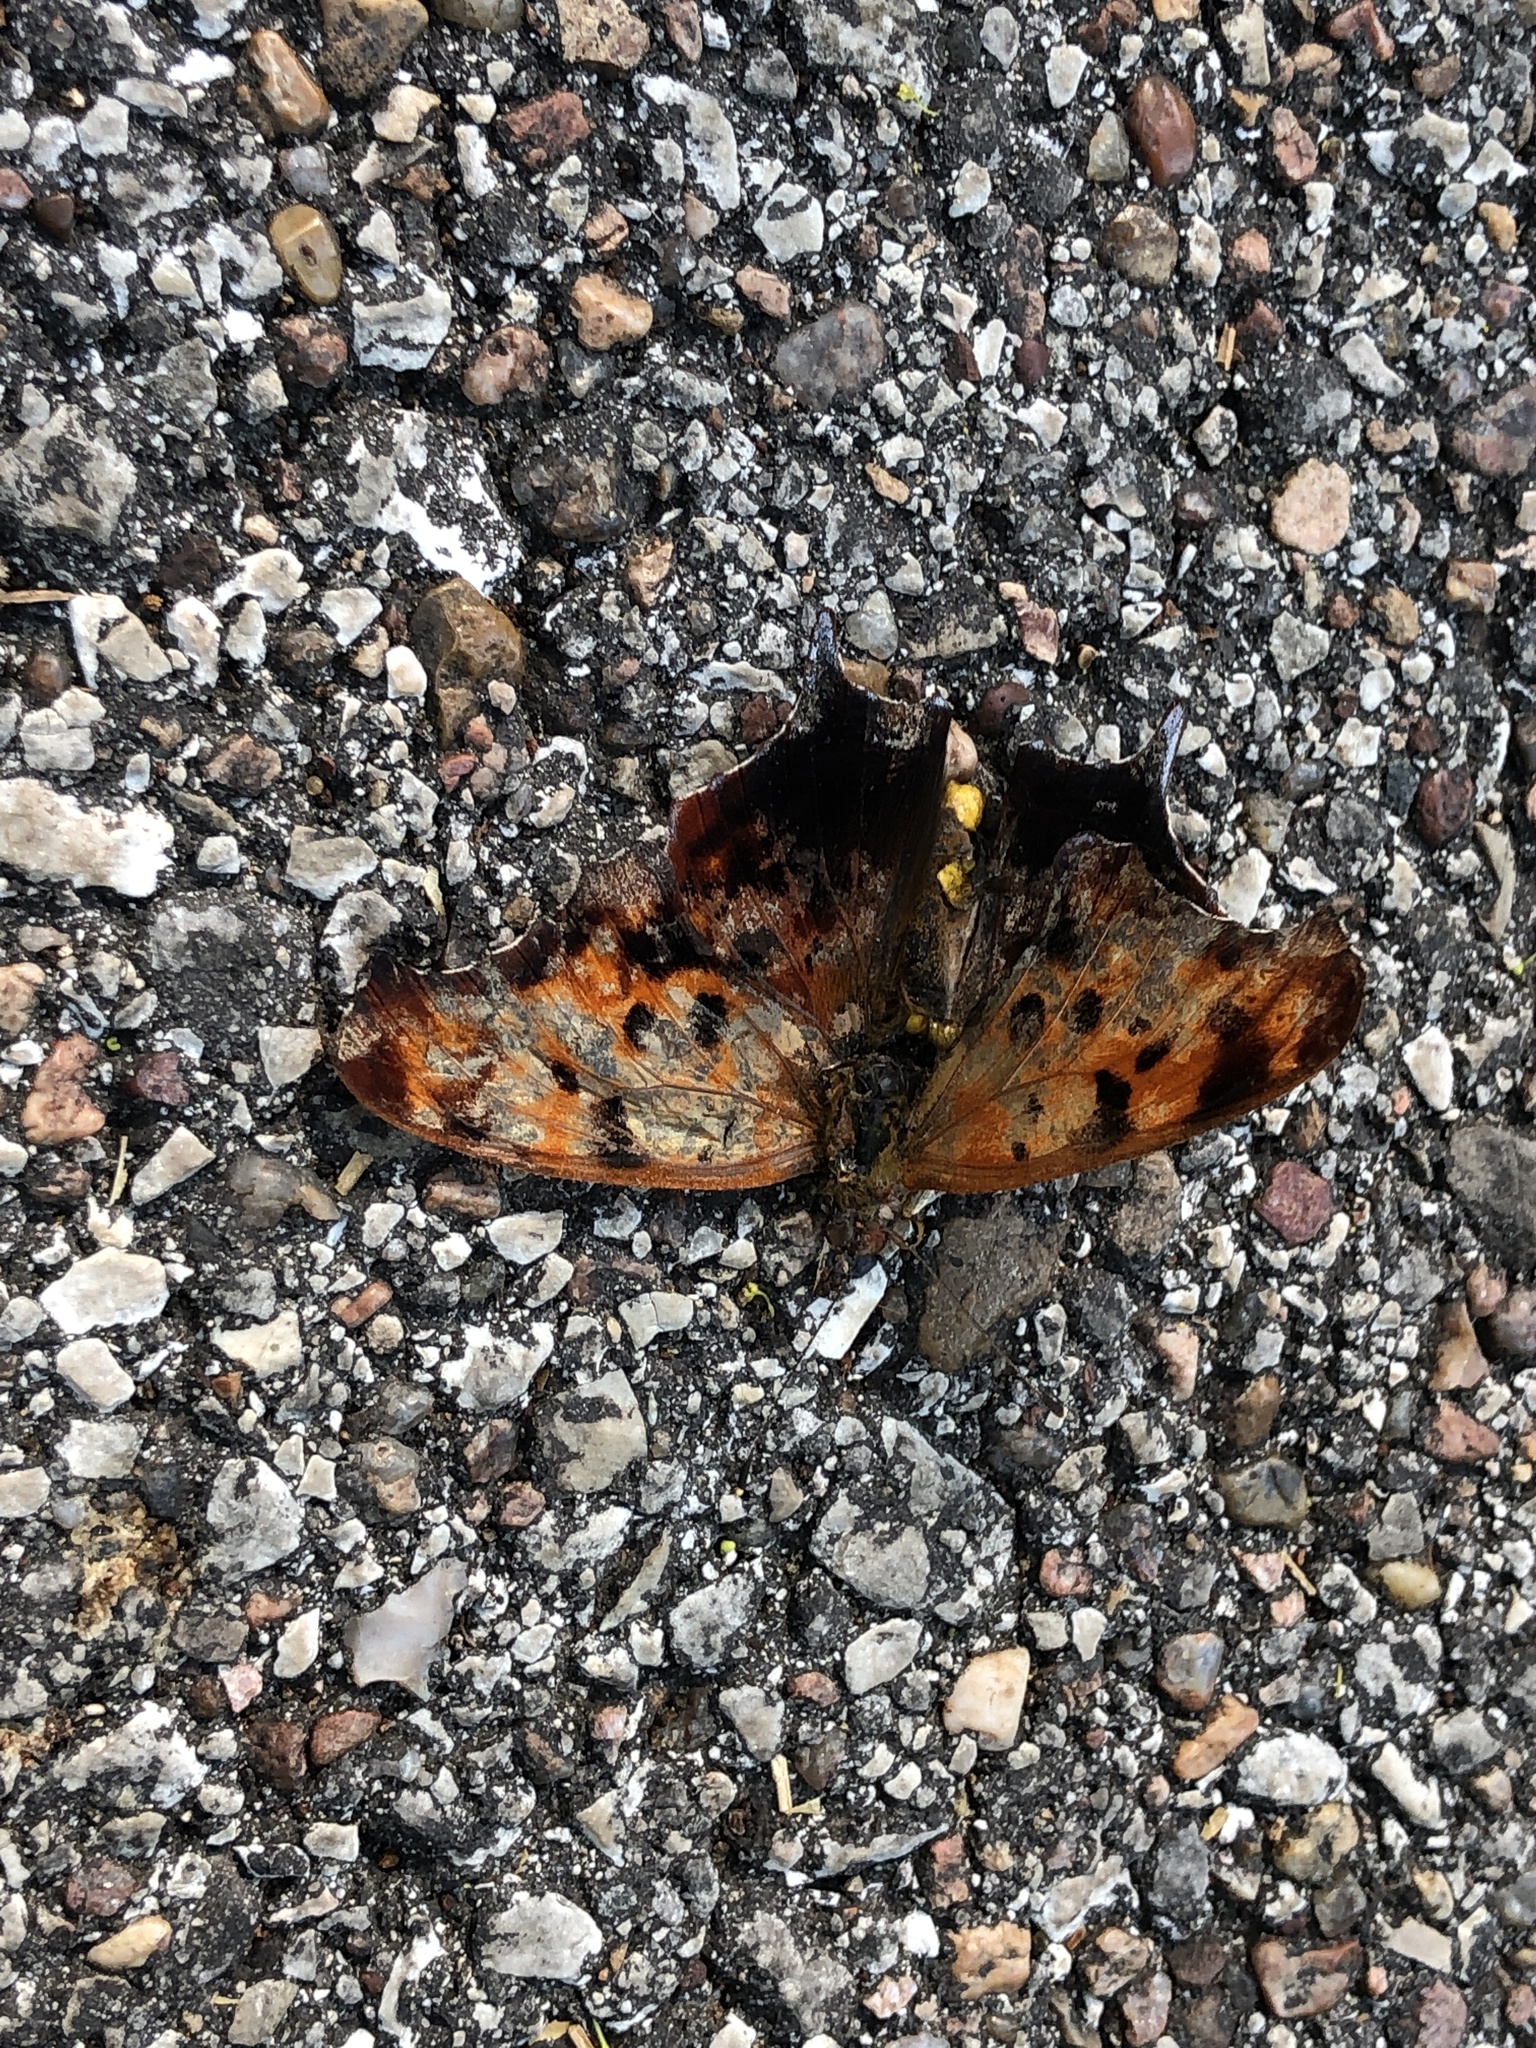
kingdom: Animalia
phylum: Arthropoda
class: Insecta
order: Lepidoptera
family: Nymphalidae
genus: Polygonia
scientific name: Polygonia interrogationis
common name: Question mark
